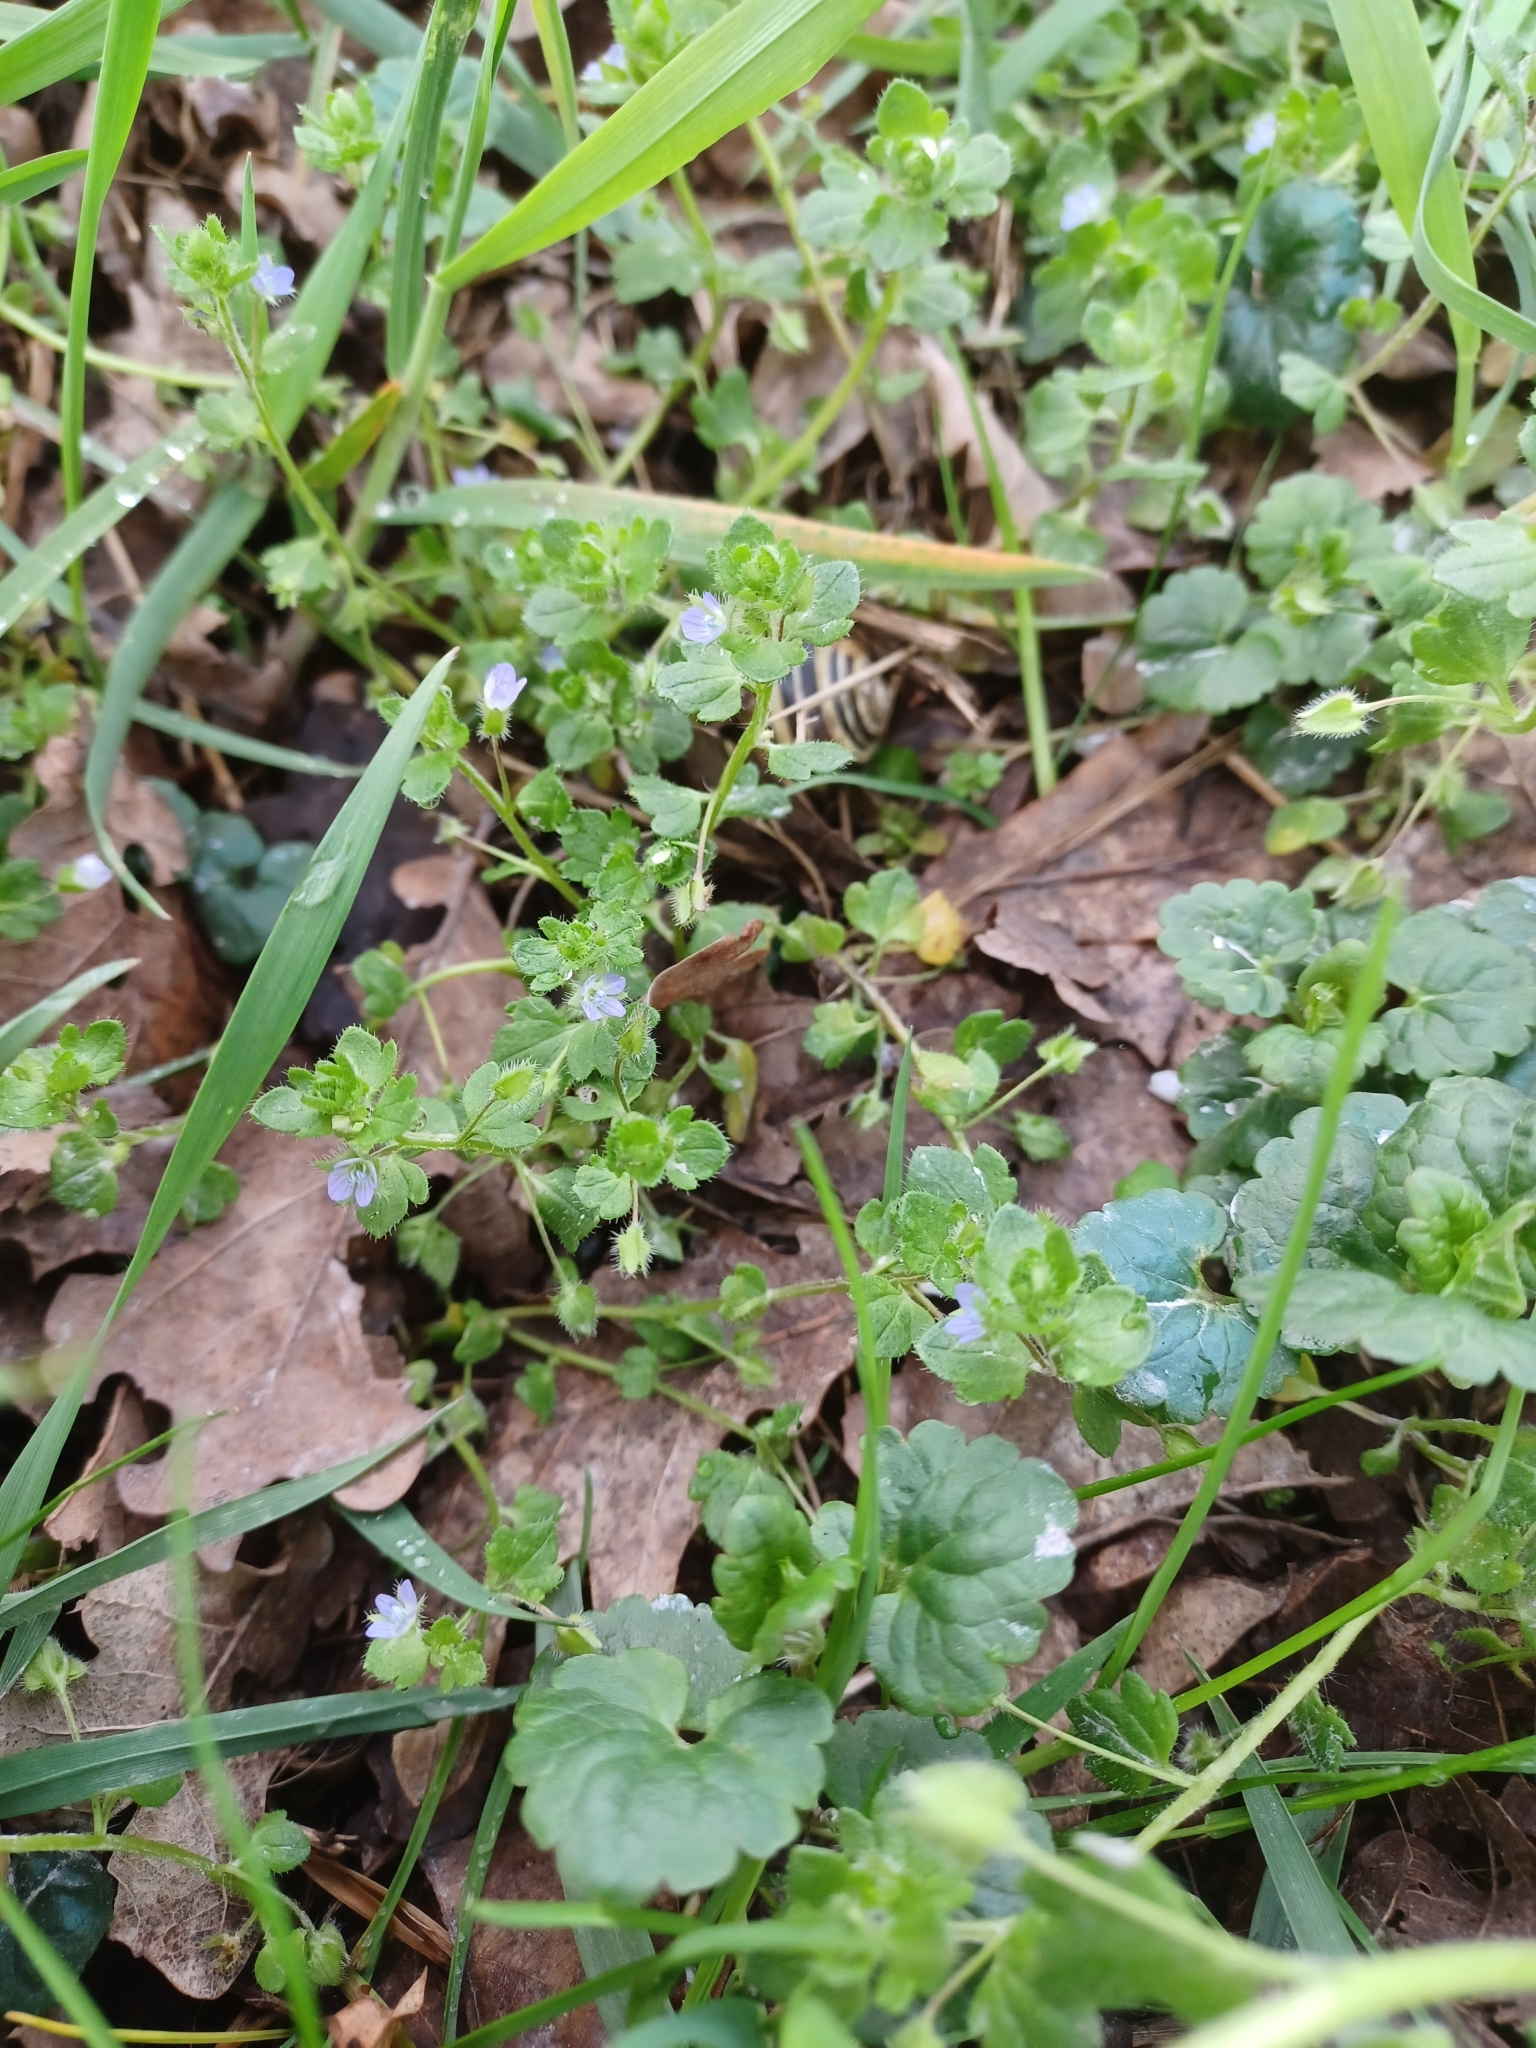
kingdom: Plantae
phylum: Tracheophyta
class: Magnoliopsida
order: Lamiales
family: Plantaginaceae
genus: Veronica
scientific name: Veronica hederifolia
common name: Ivy-leaved speedwell
